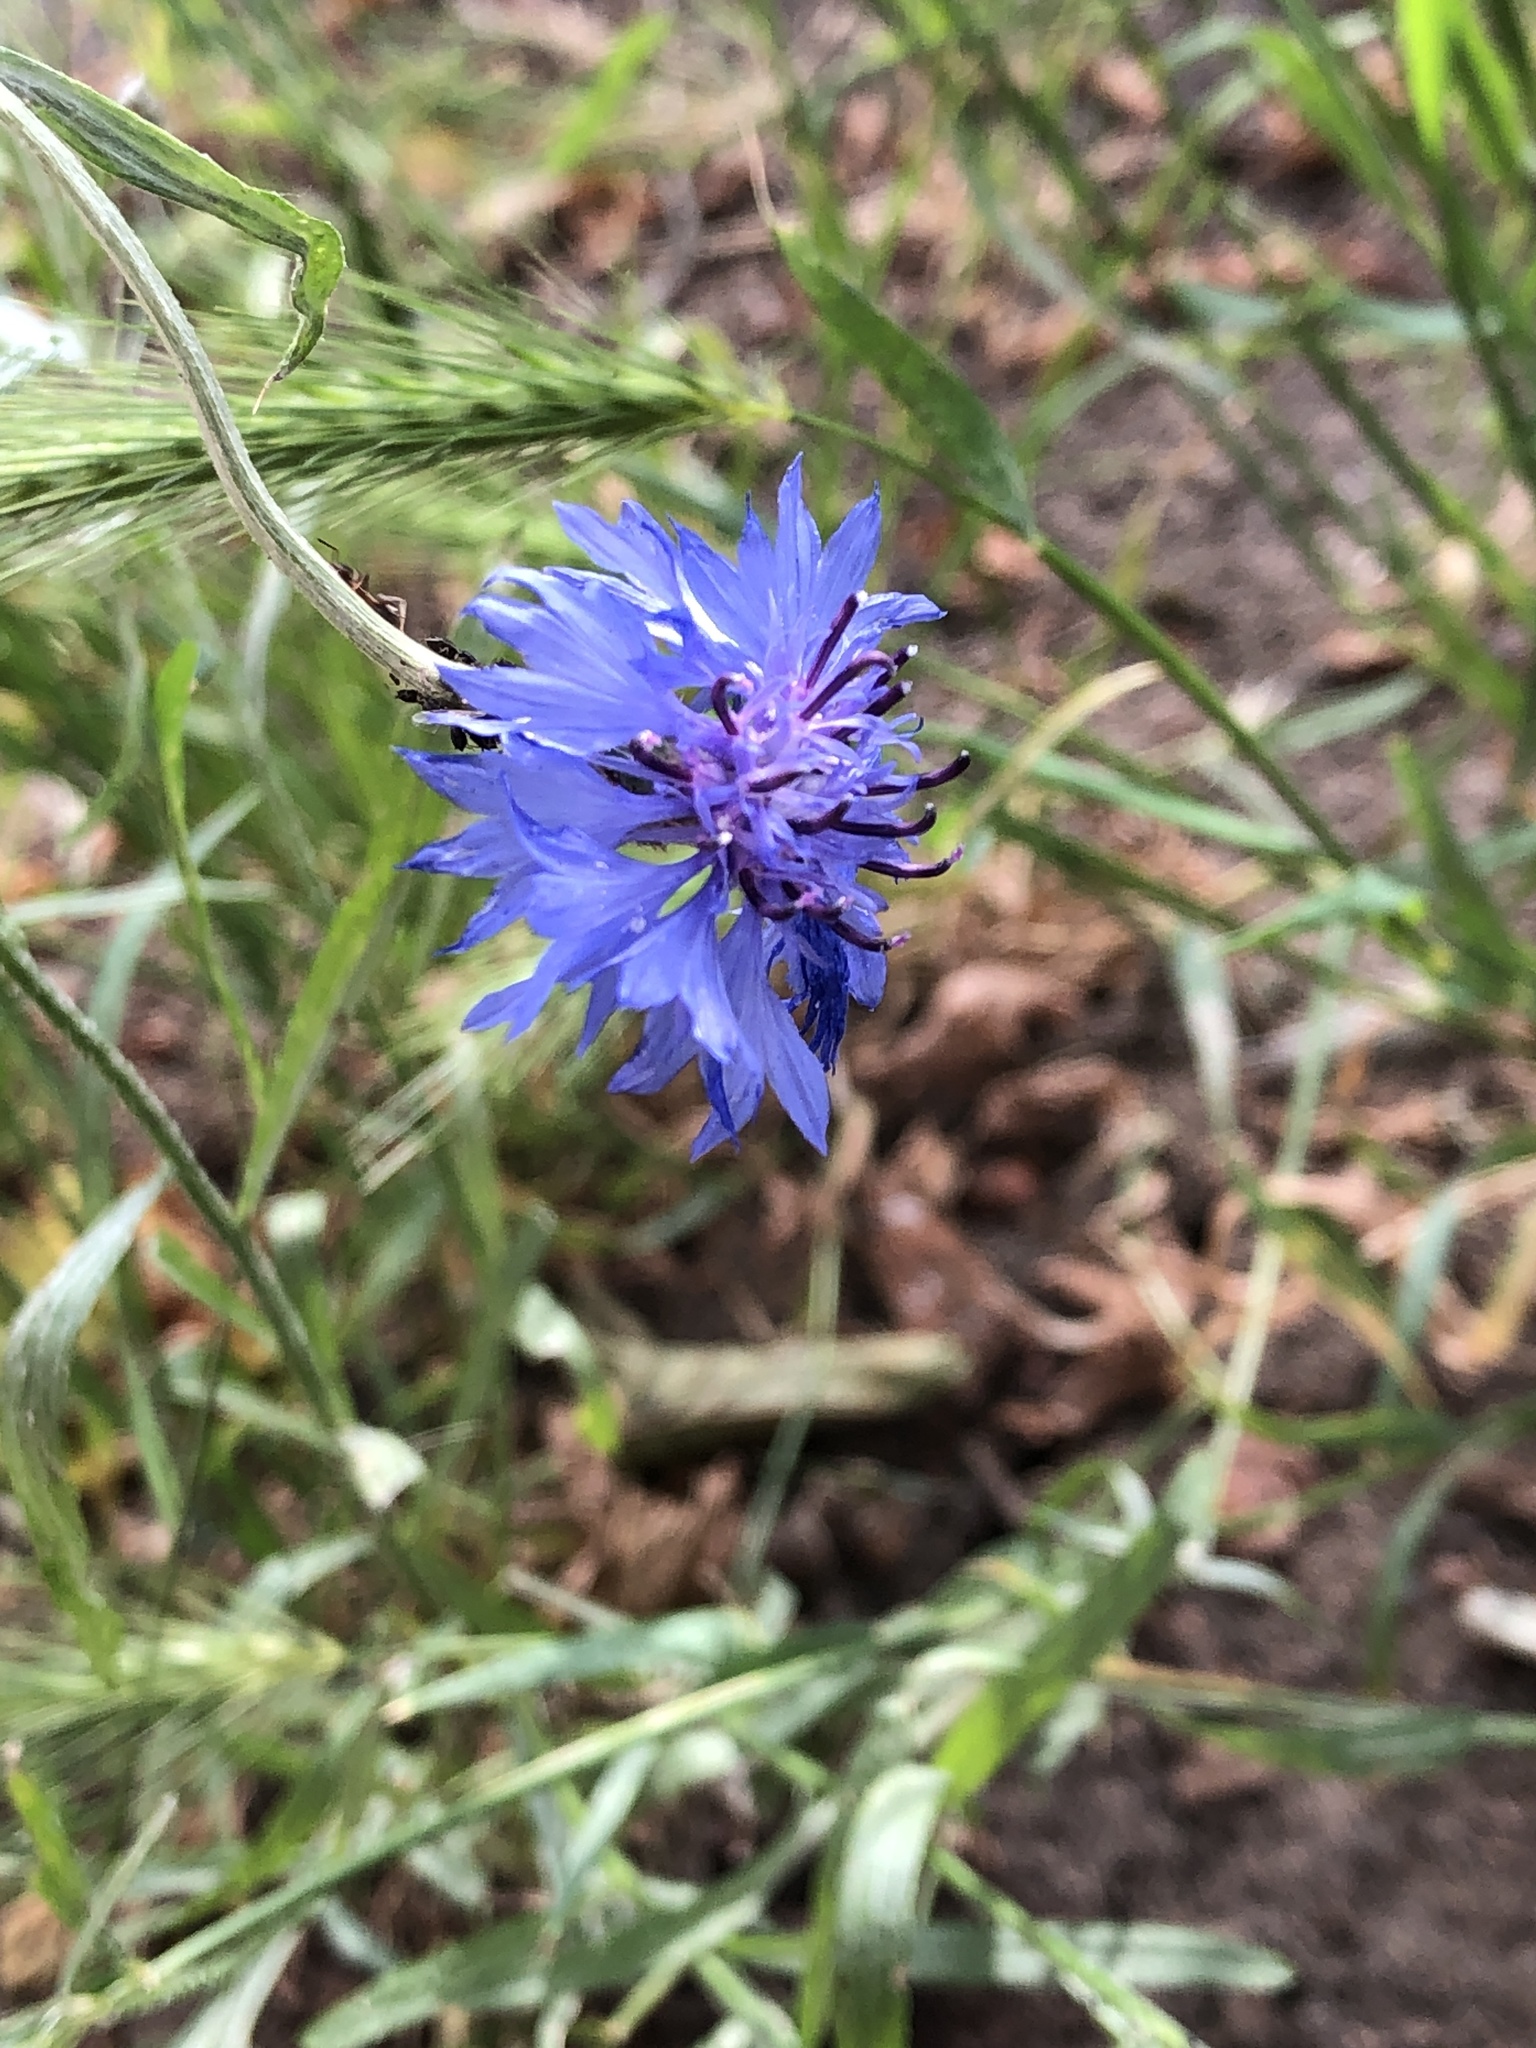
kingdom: Plantae
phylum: Tracheophyta
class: Magnoliopsida
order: Asterales
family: Asteraceae
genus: Centaurea
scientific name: Centaurea cyanus
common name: Cornflower
